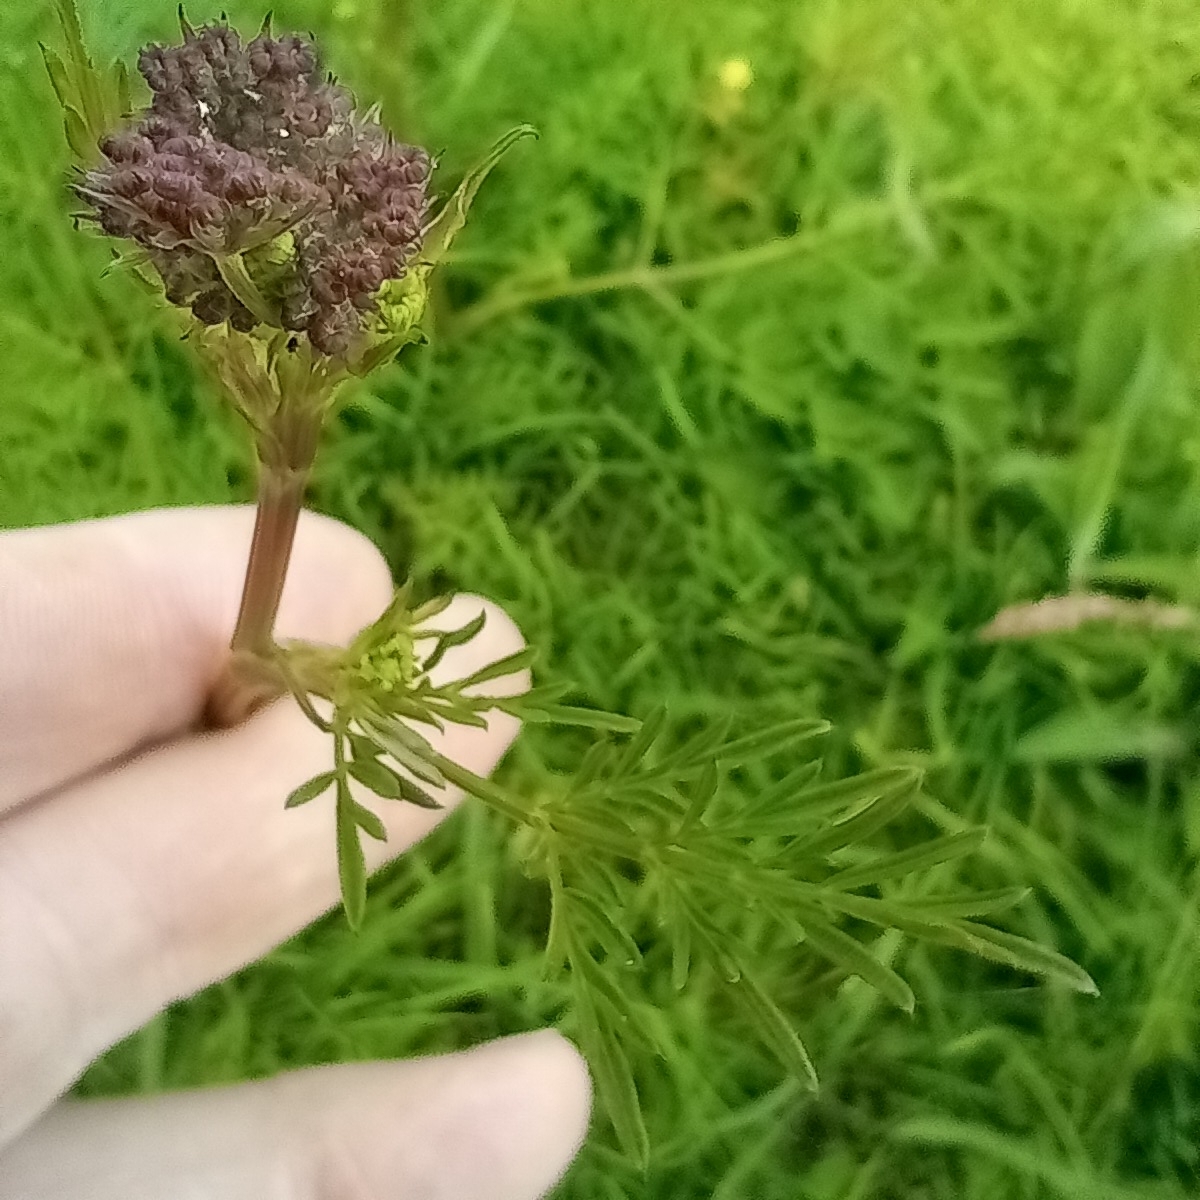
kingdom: Plantae
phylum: Tracheophyta
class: Magnoliopsida
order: Apiales
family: Apiaceae
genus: Conopodium
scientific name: Conopodium majus
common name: Pignut
